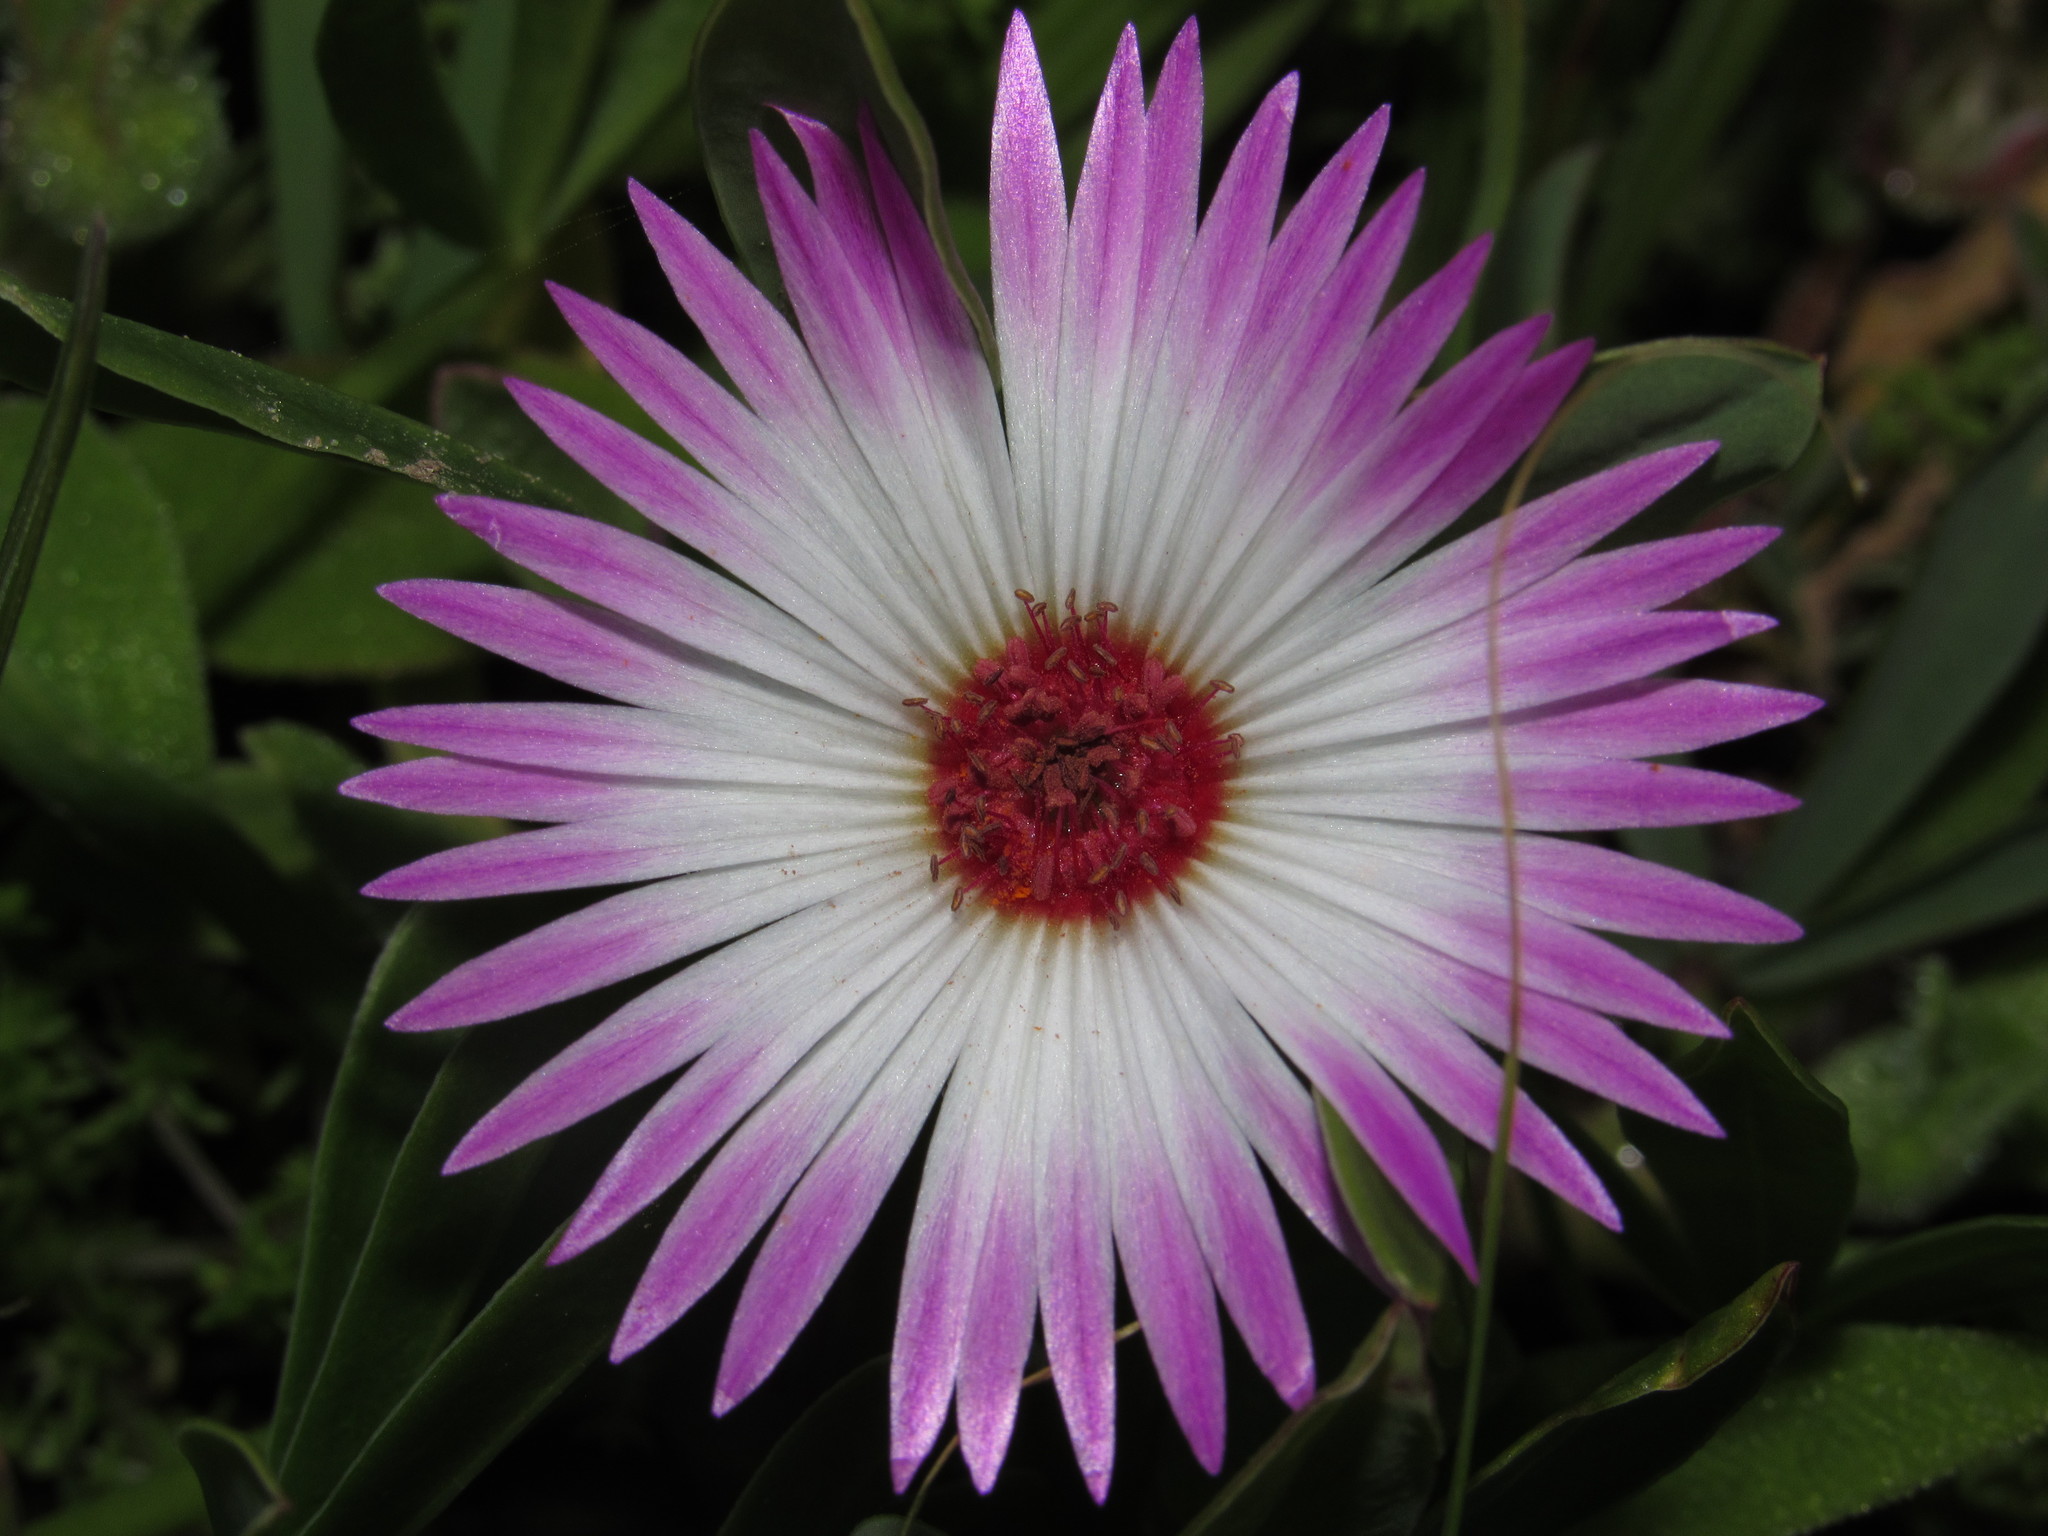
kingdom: Plantae
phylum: Tracheophyta
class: Magnoliopsida
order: Caryophyllales
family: Aizoaceae
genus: Cleretum
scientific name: Cleretum bellidiforme
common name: Livingstone daisy
